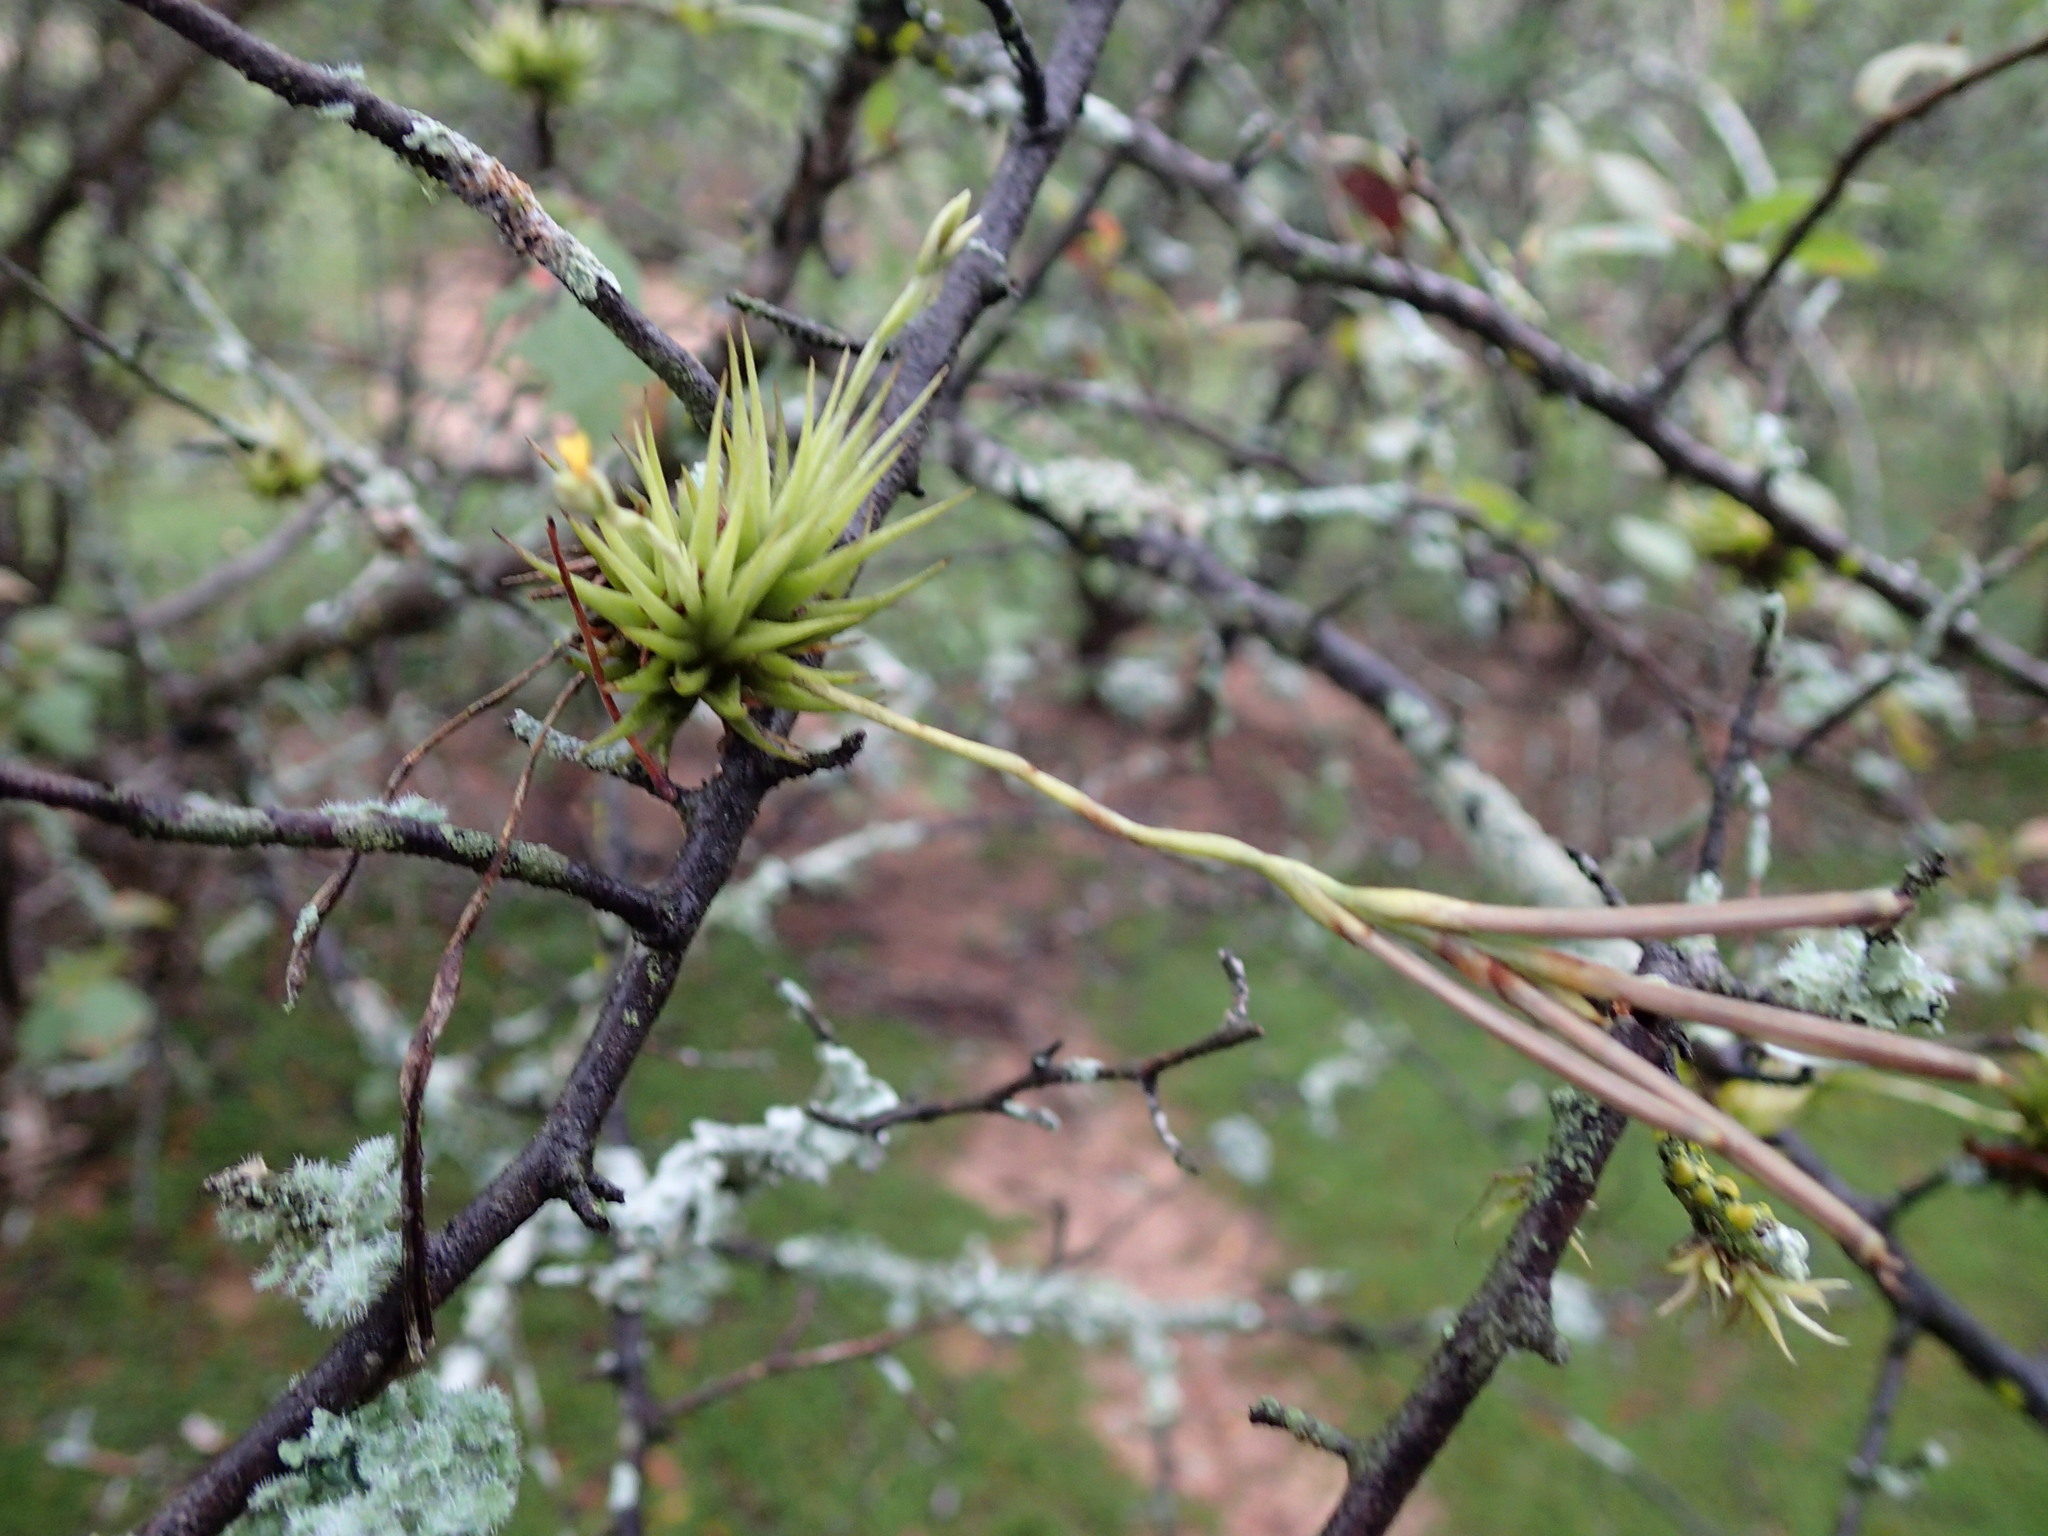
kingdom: Plantae
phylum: Tracheophyta
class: Liliopsida
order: Poales
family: Bromeliaceae
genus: Tillandsia
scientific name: Tillandsia loliacea
